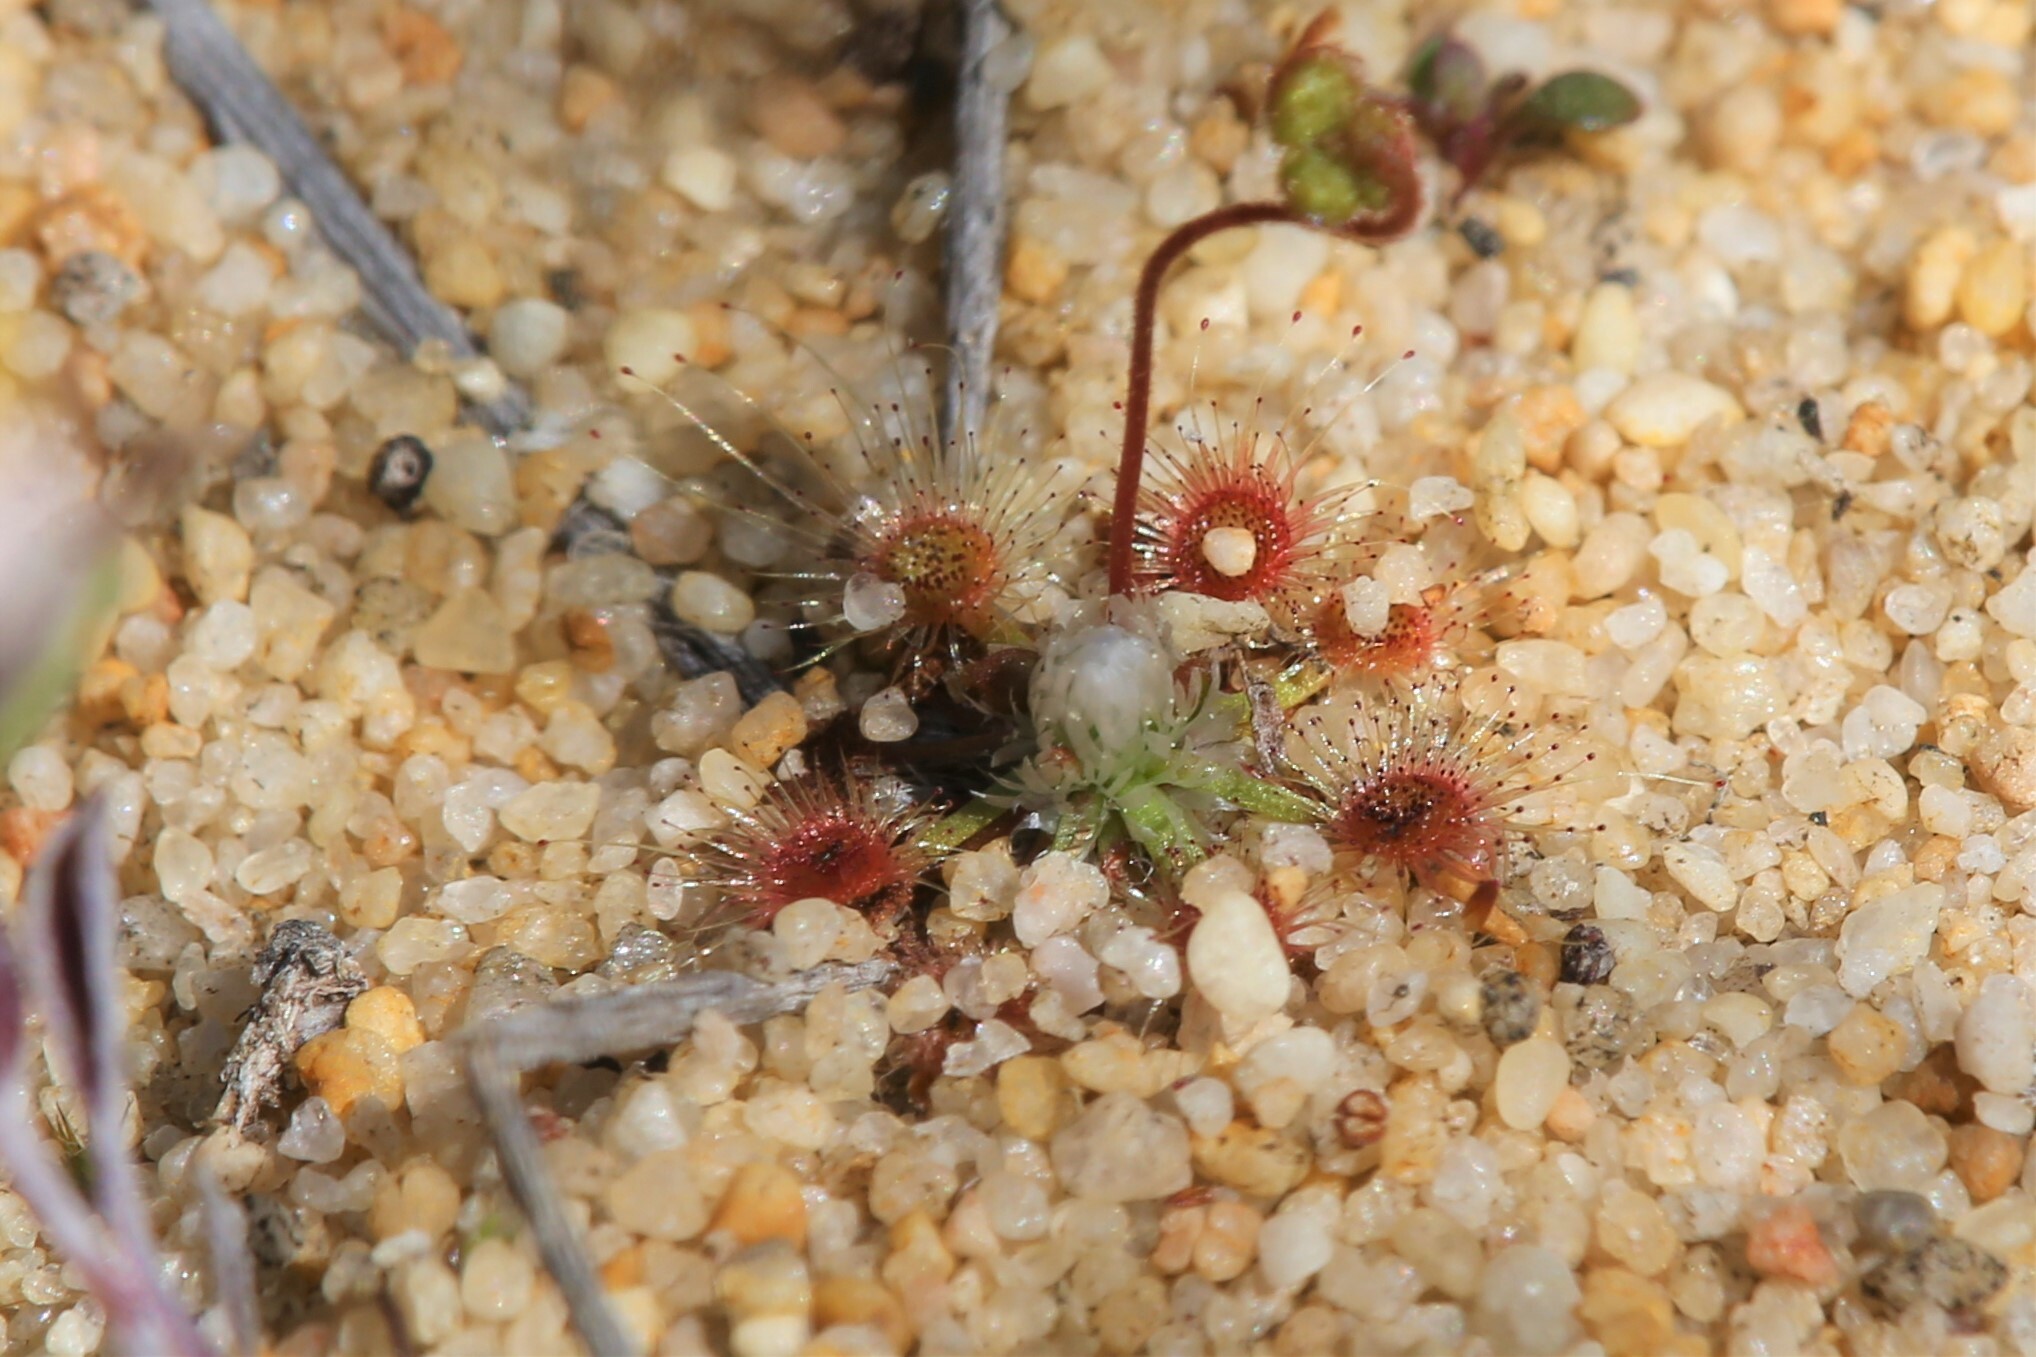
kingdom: Plantae
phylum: Tracheophyta
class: Magnoliopsida
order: Caryophyllales
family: Droseraceae
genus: Drosera
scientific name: Drosera helodes
